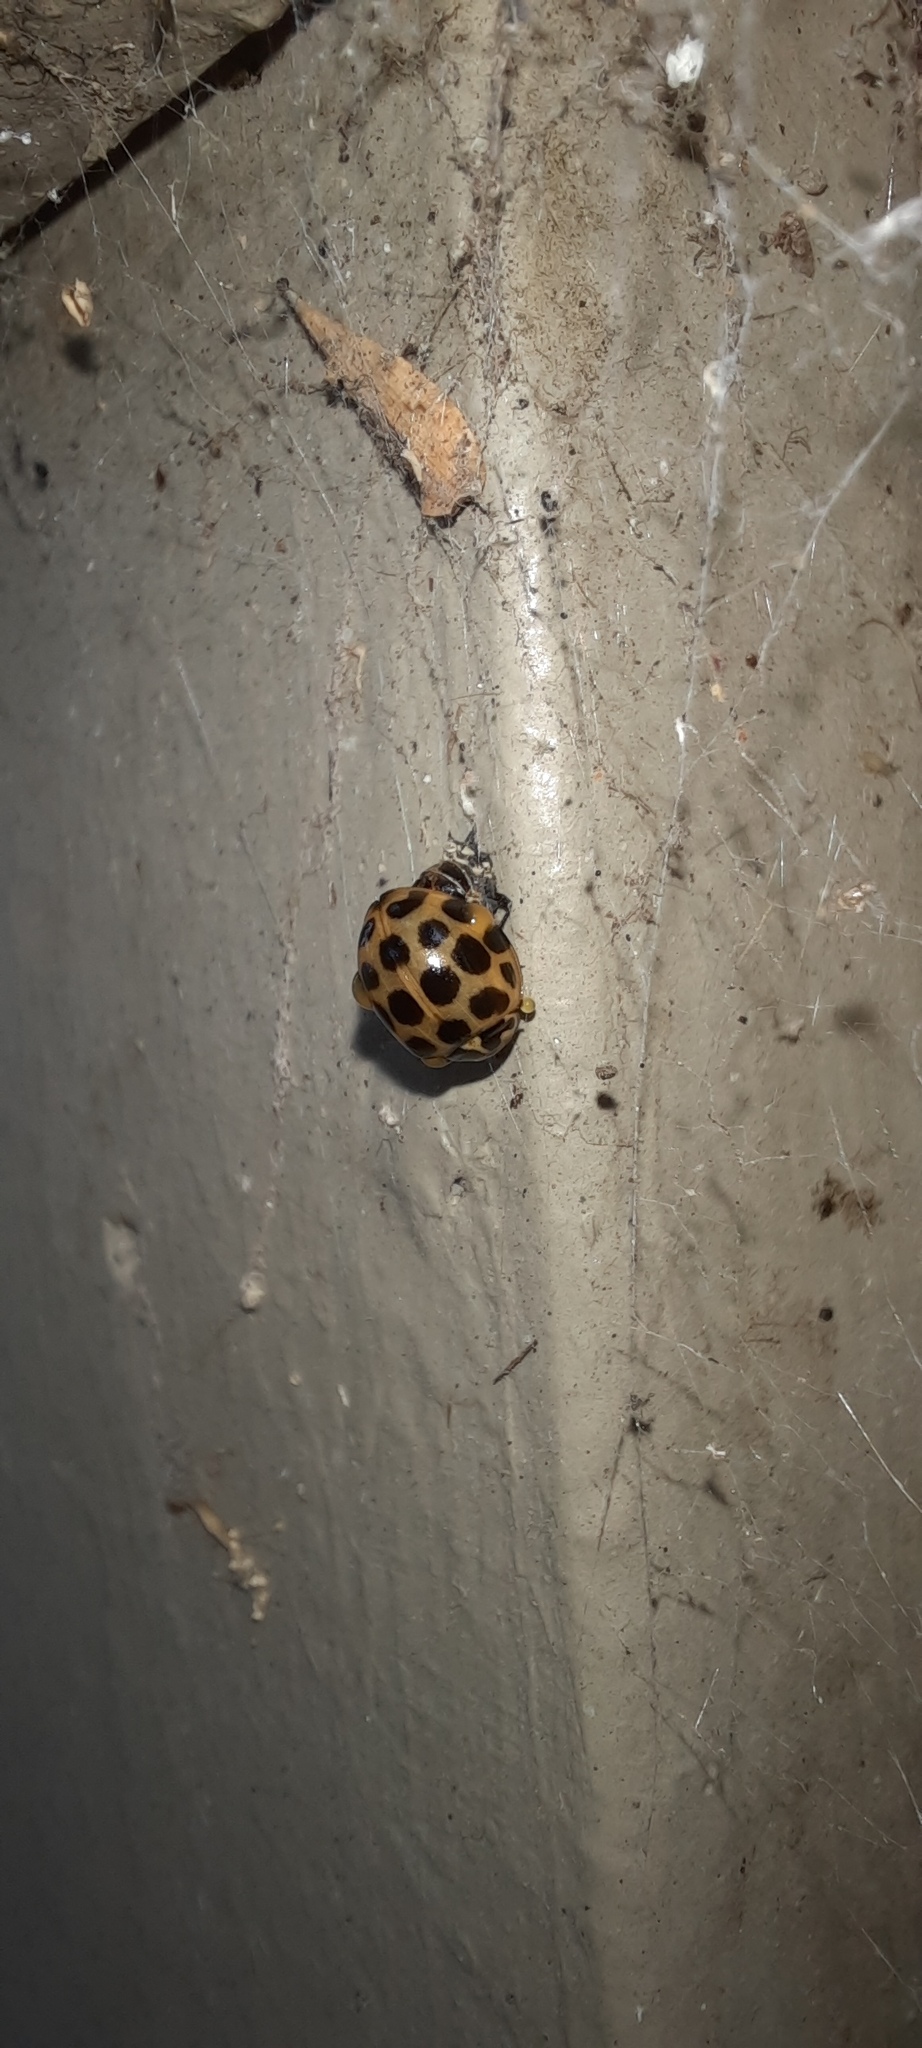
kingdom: Animalia
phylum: Arthropoda
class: Insecta
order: Coleoptera
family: Coccinellidae
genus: Harmonia
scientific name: Harmonia conformis
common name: Common spotted ladybird beetle
